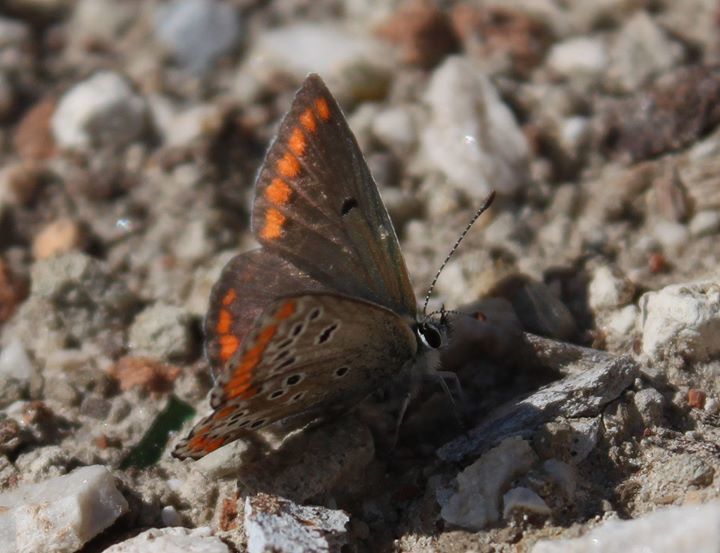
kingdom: Animalia
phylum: Arthropoda
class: Insecta
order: Lepidoptera
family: Lycaenidae
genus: Aricia
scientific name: Aricia agestis
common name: Brown argus
